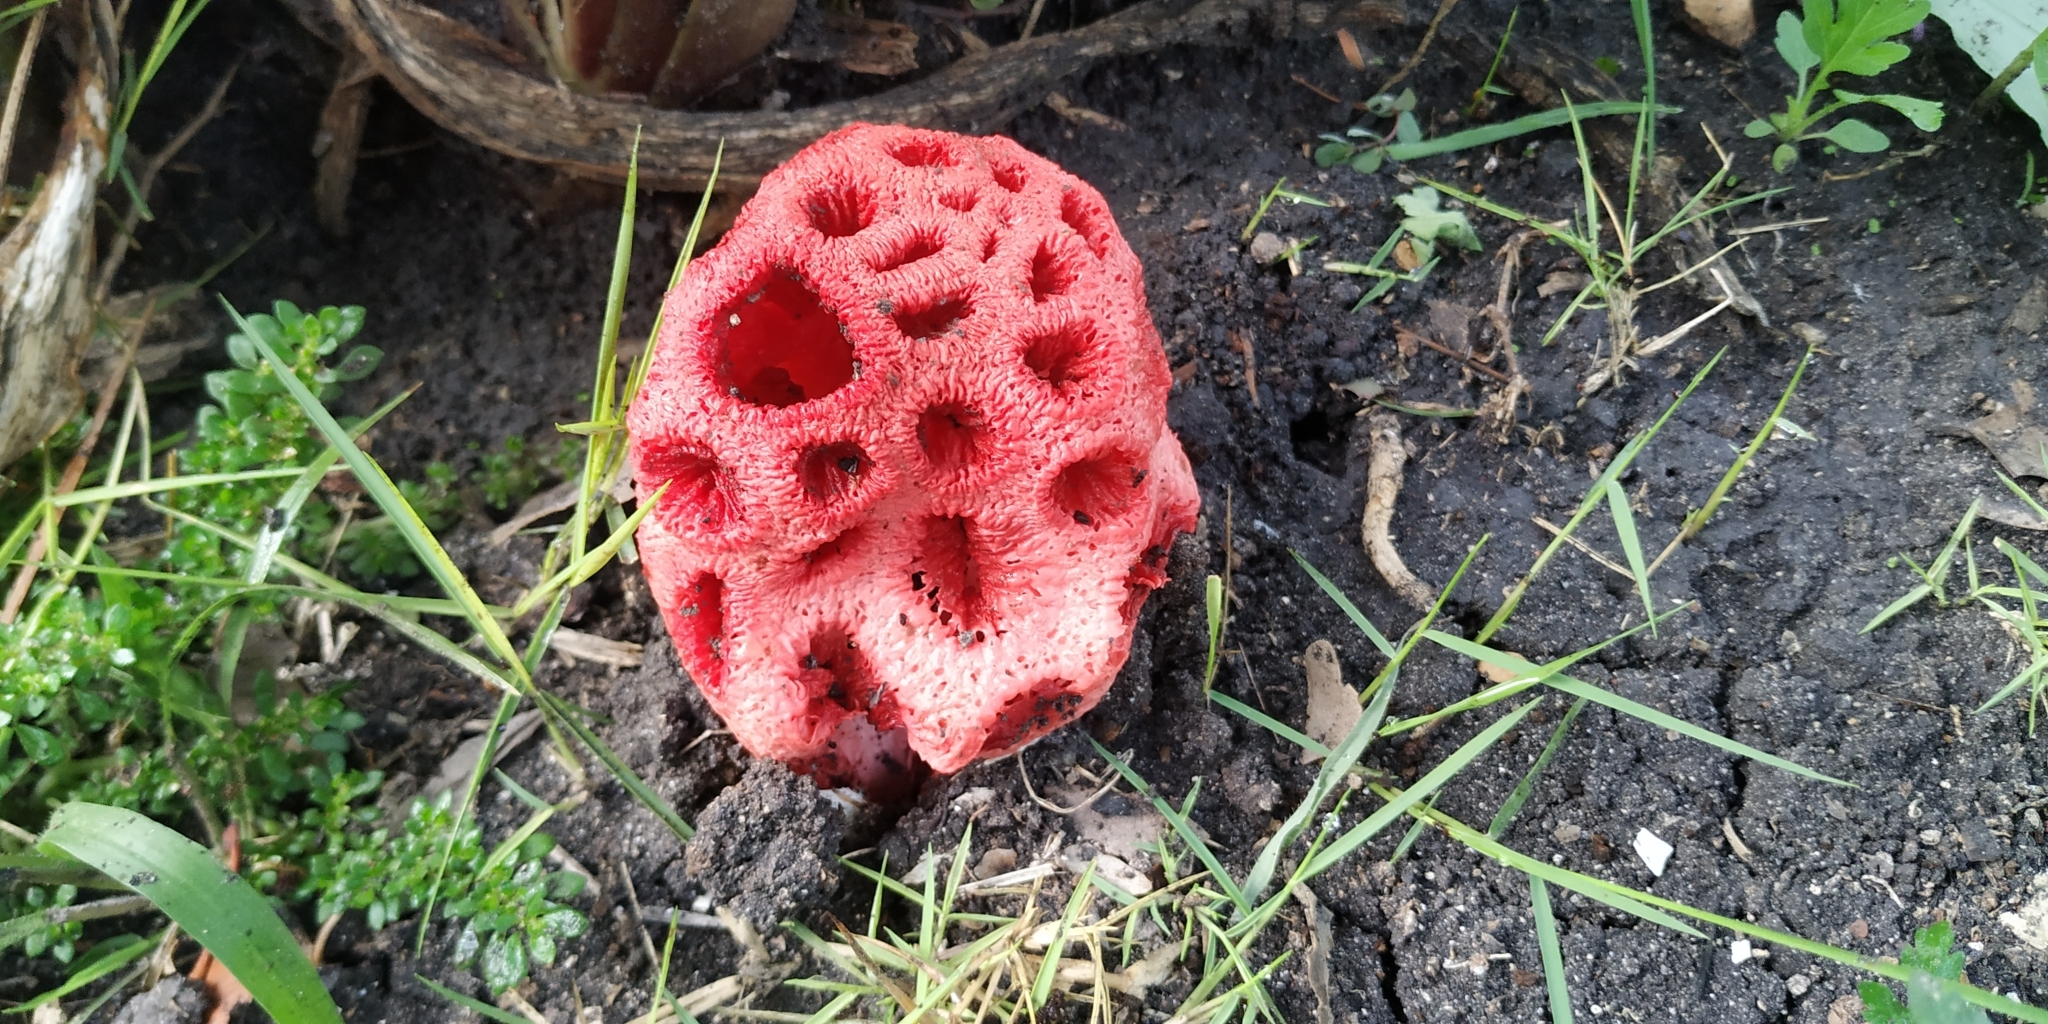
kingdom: Fungi
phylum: Basidiomycota
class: Agaricomycetes
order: Phallales
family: Phallaceae
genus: Clathrus
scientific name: Clathrus crispatus
